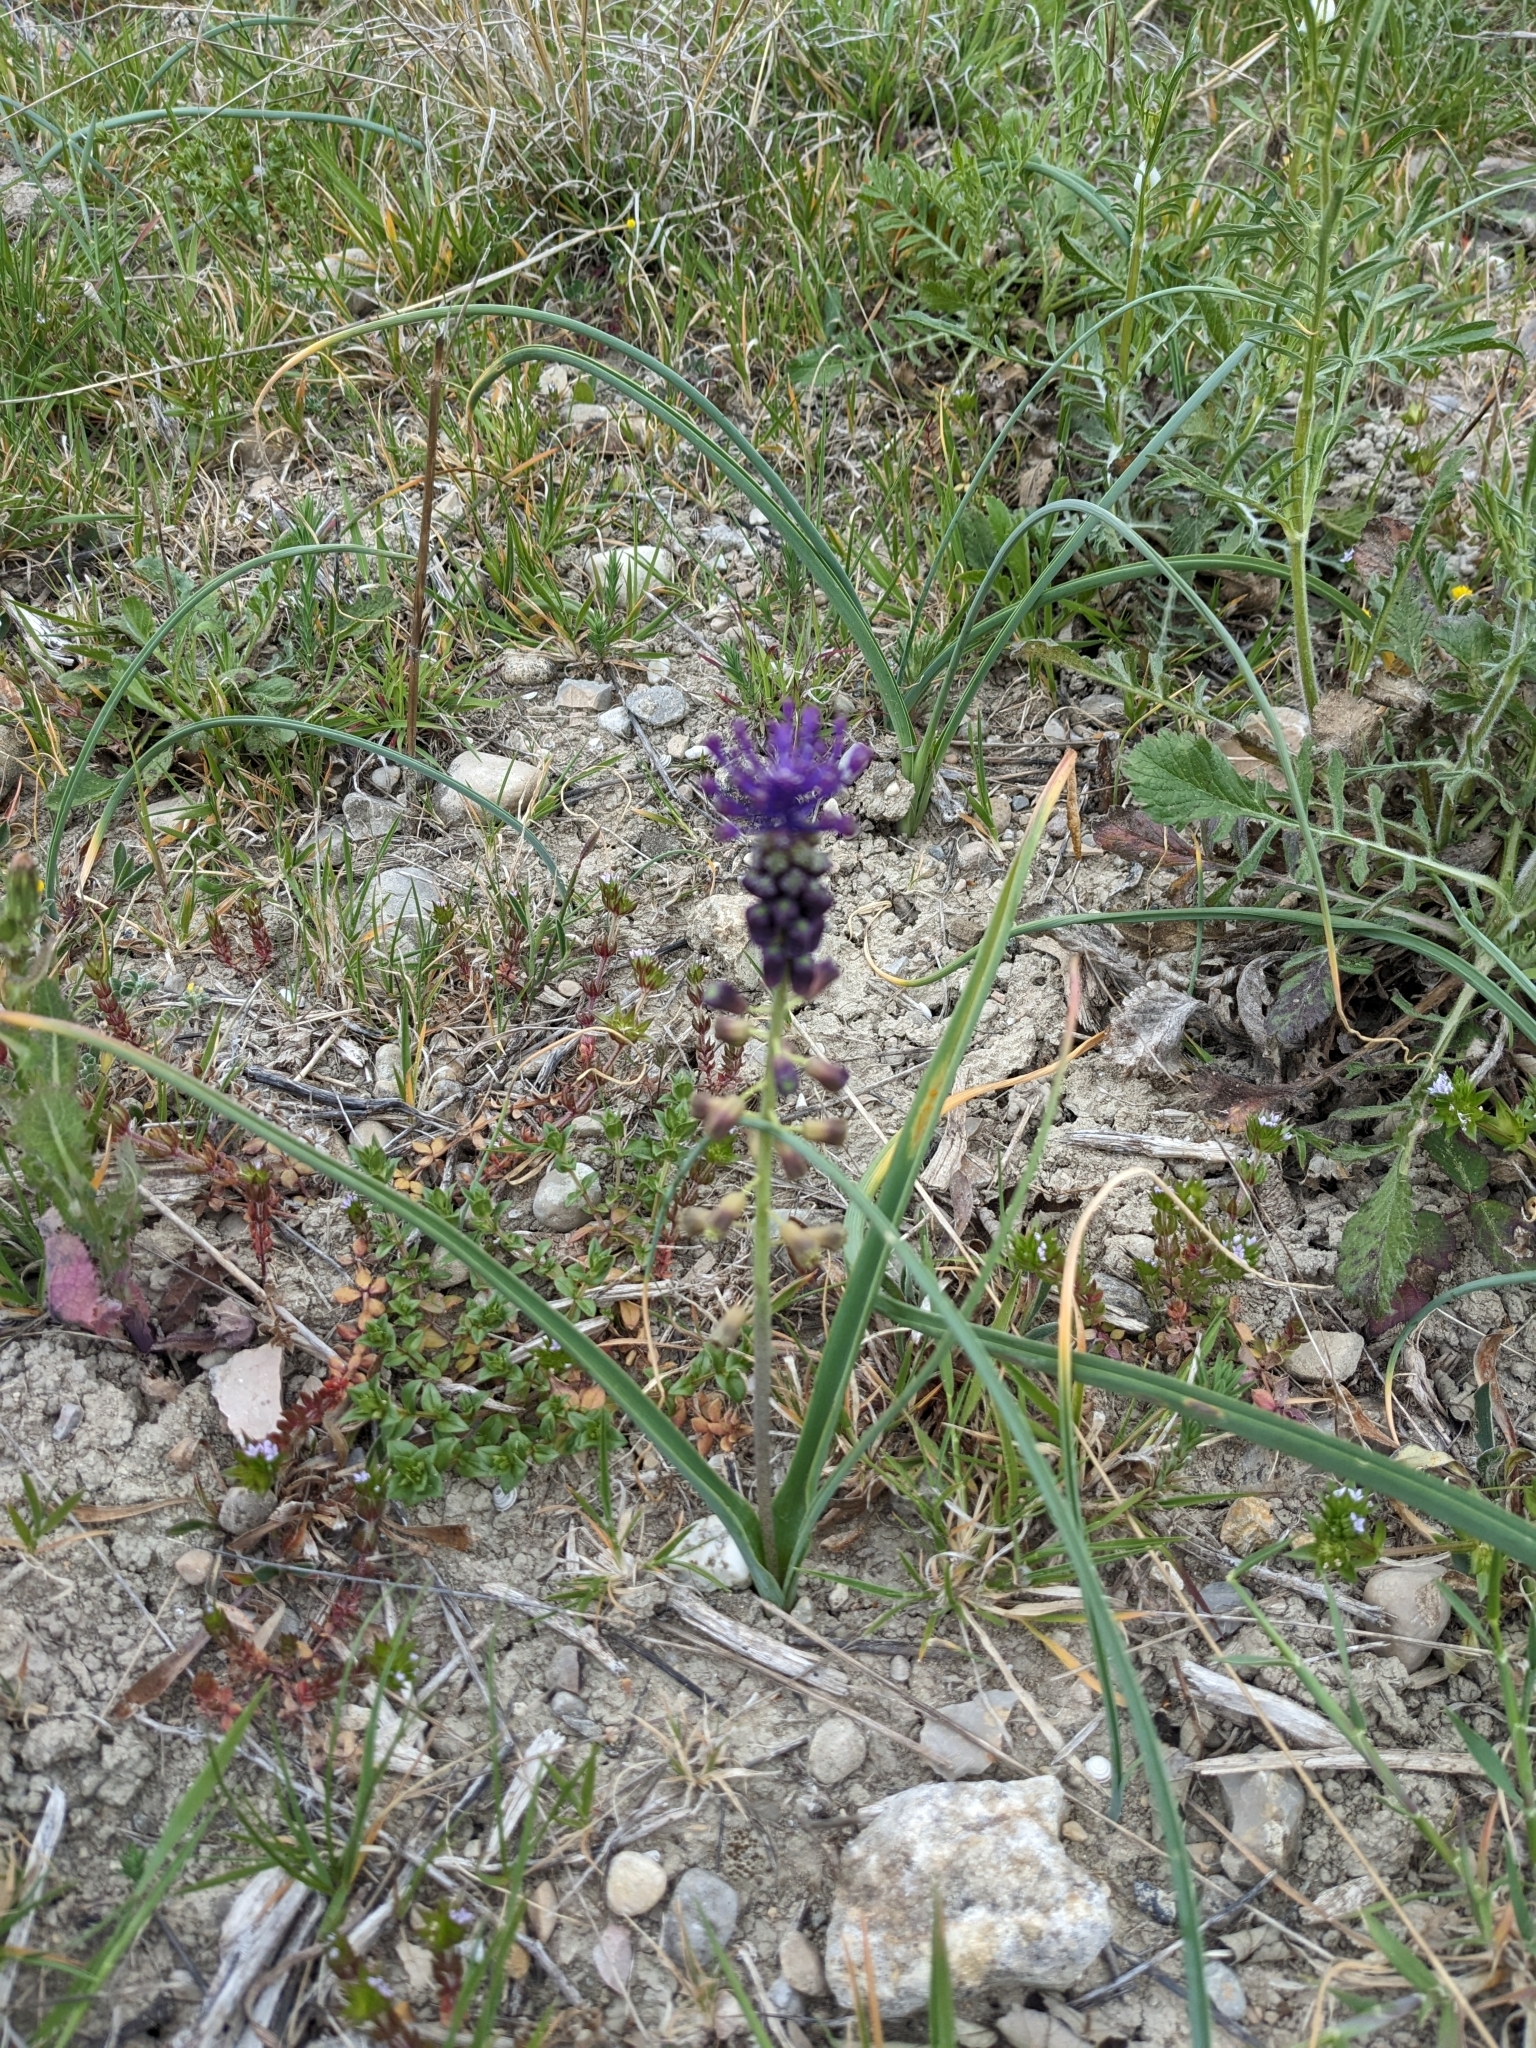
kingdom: Plantae
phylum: Tracheophyta
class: Liliopsida
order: Asparagales
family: Asparagaceae
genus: Muscari
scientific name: Muscari comosum
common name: Tassel hyacinth
